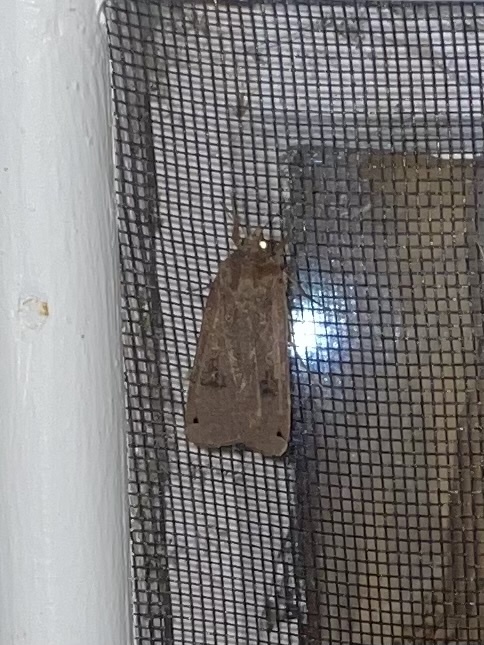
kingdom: Animalia
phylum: Arthropoda
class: Insecta
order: Lepidoptera
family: Noctuidae
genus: Noctua
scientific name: Noctua pronuba
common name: Large yellow underwing
